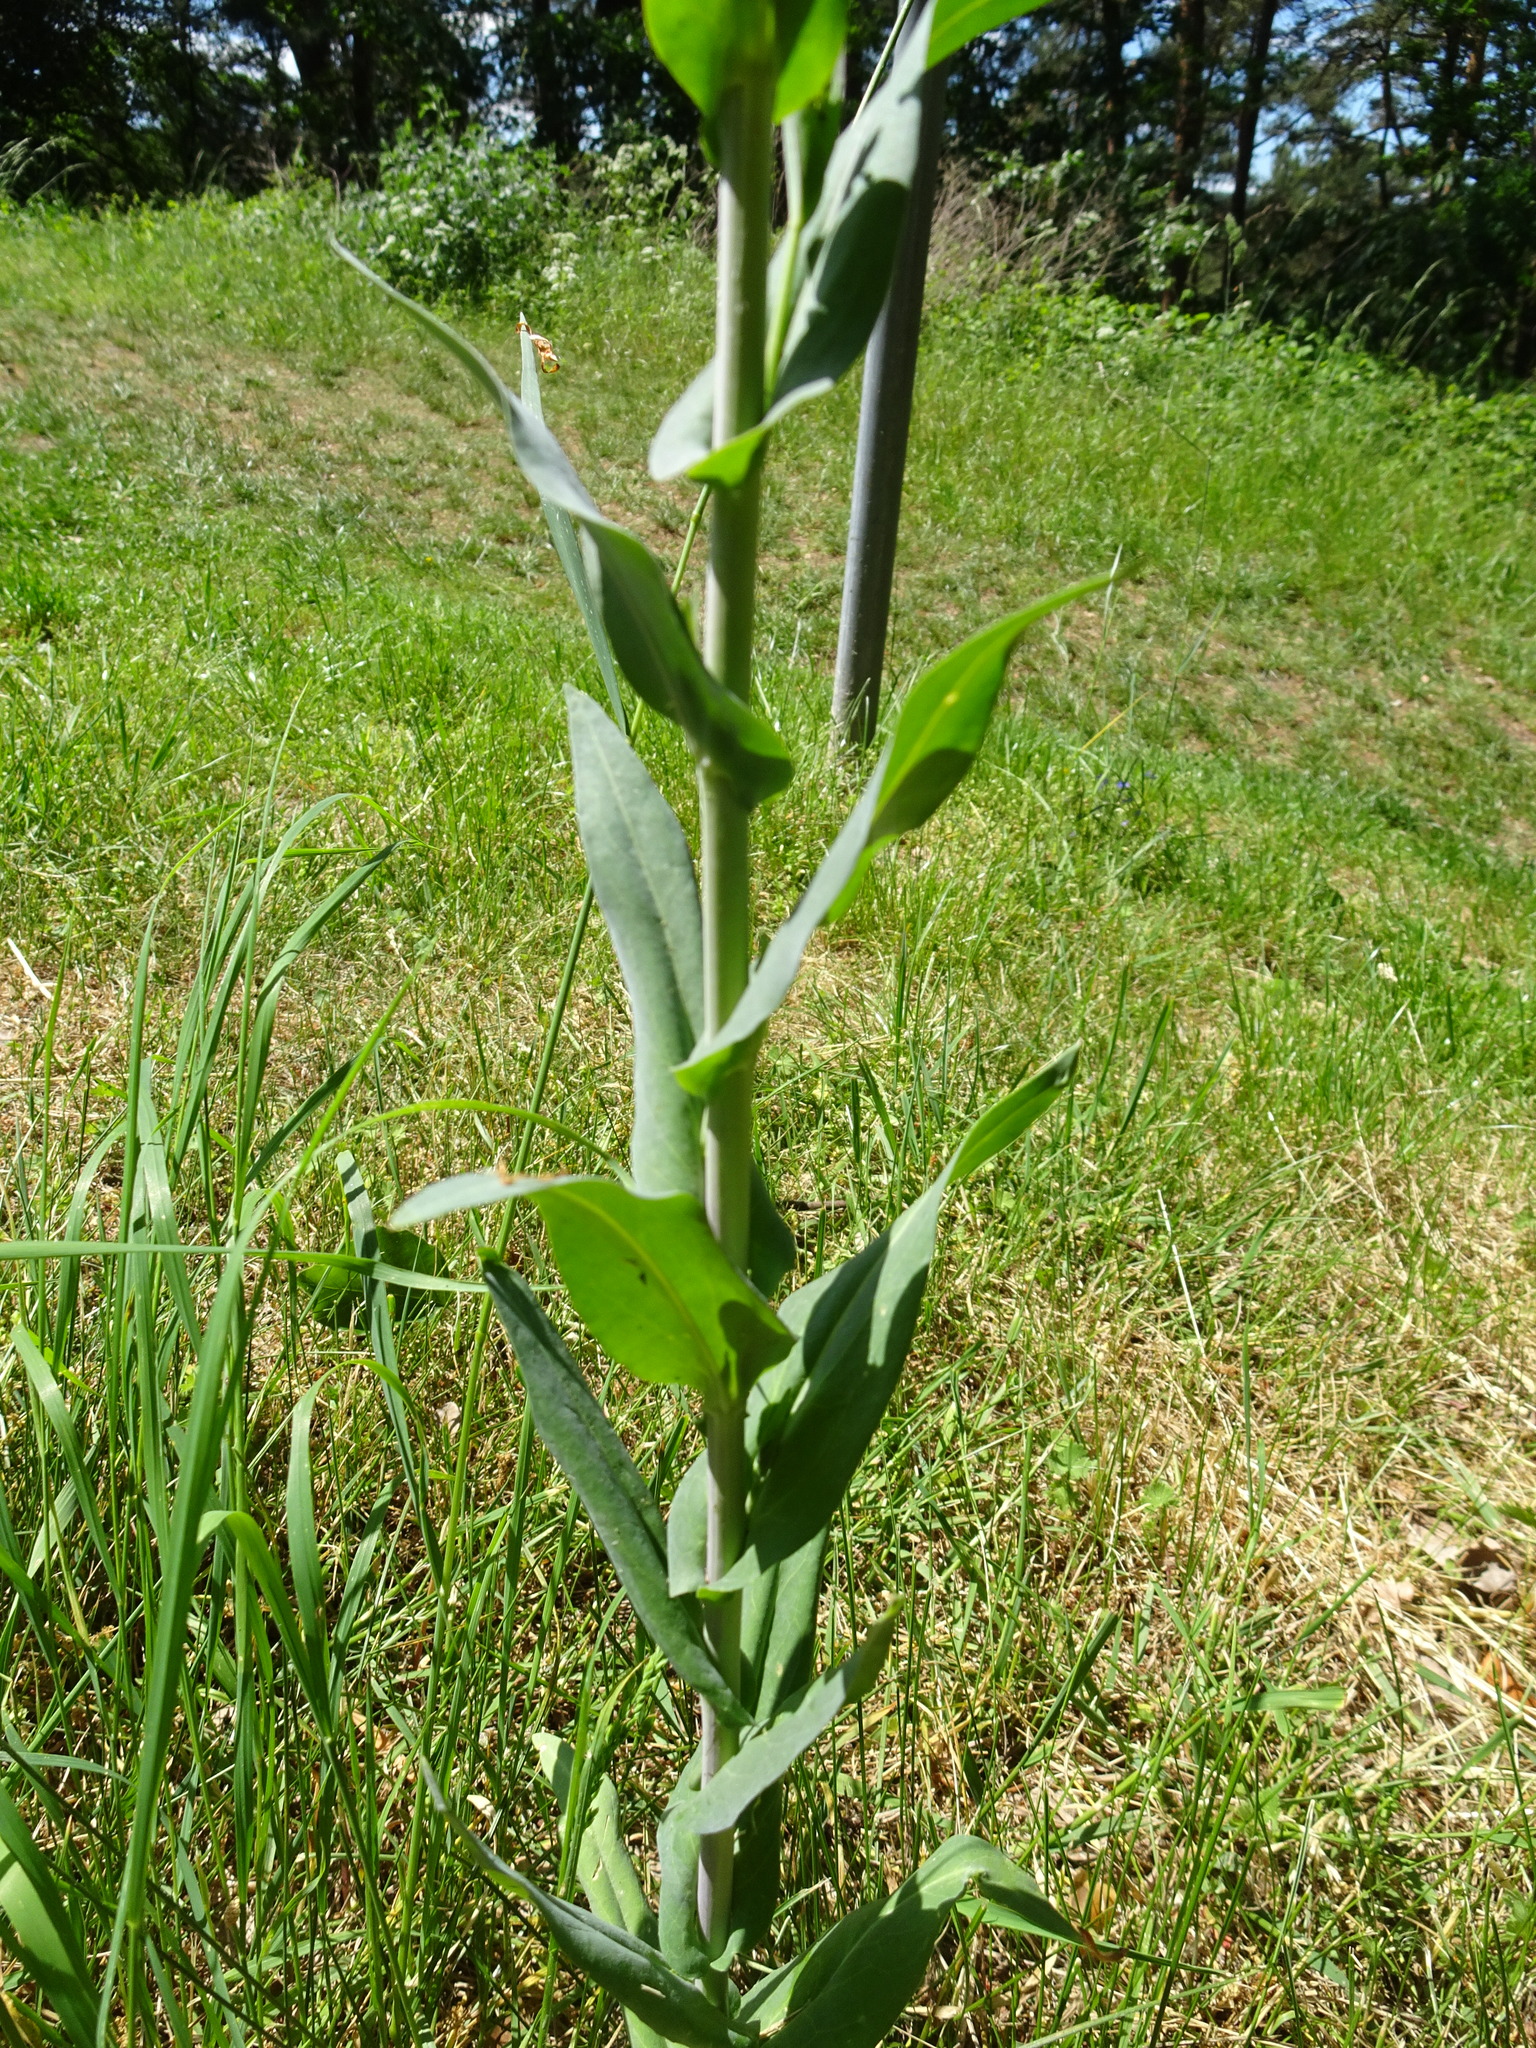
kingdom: Plantae
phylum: Tracheophyta
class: Magnoliopsida
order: Brassicales
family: Brassicaceae
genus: Turritis
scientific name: Turritis glabra
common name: Tower rockcress
